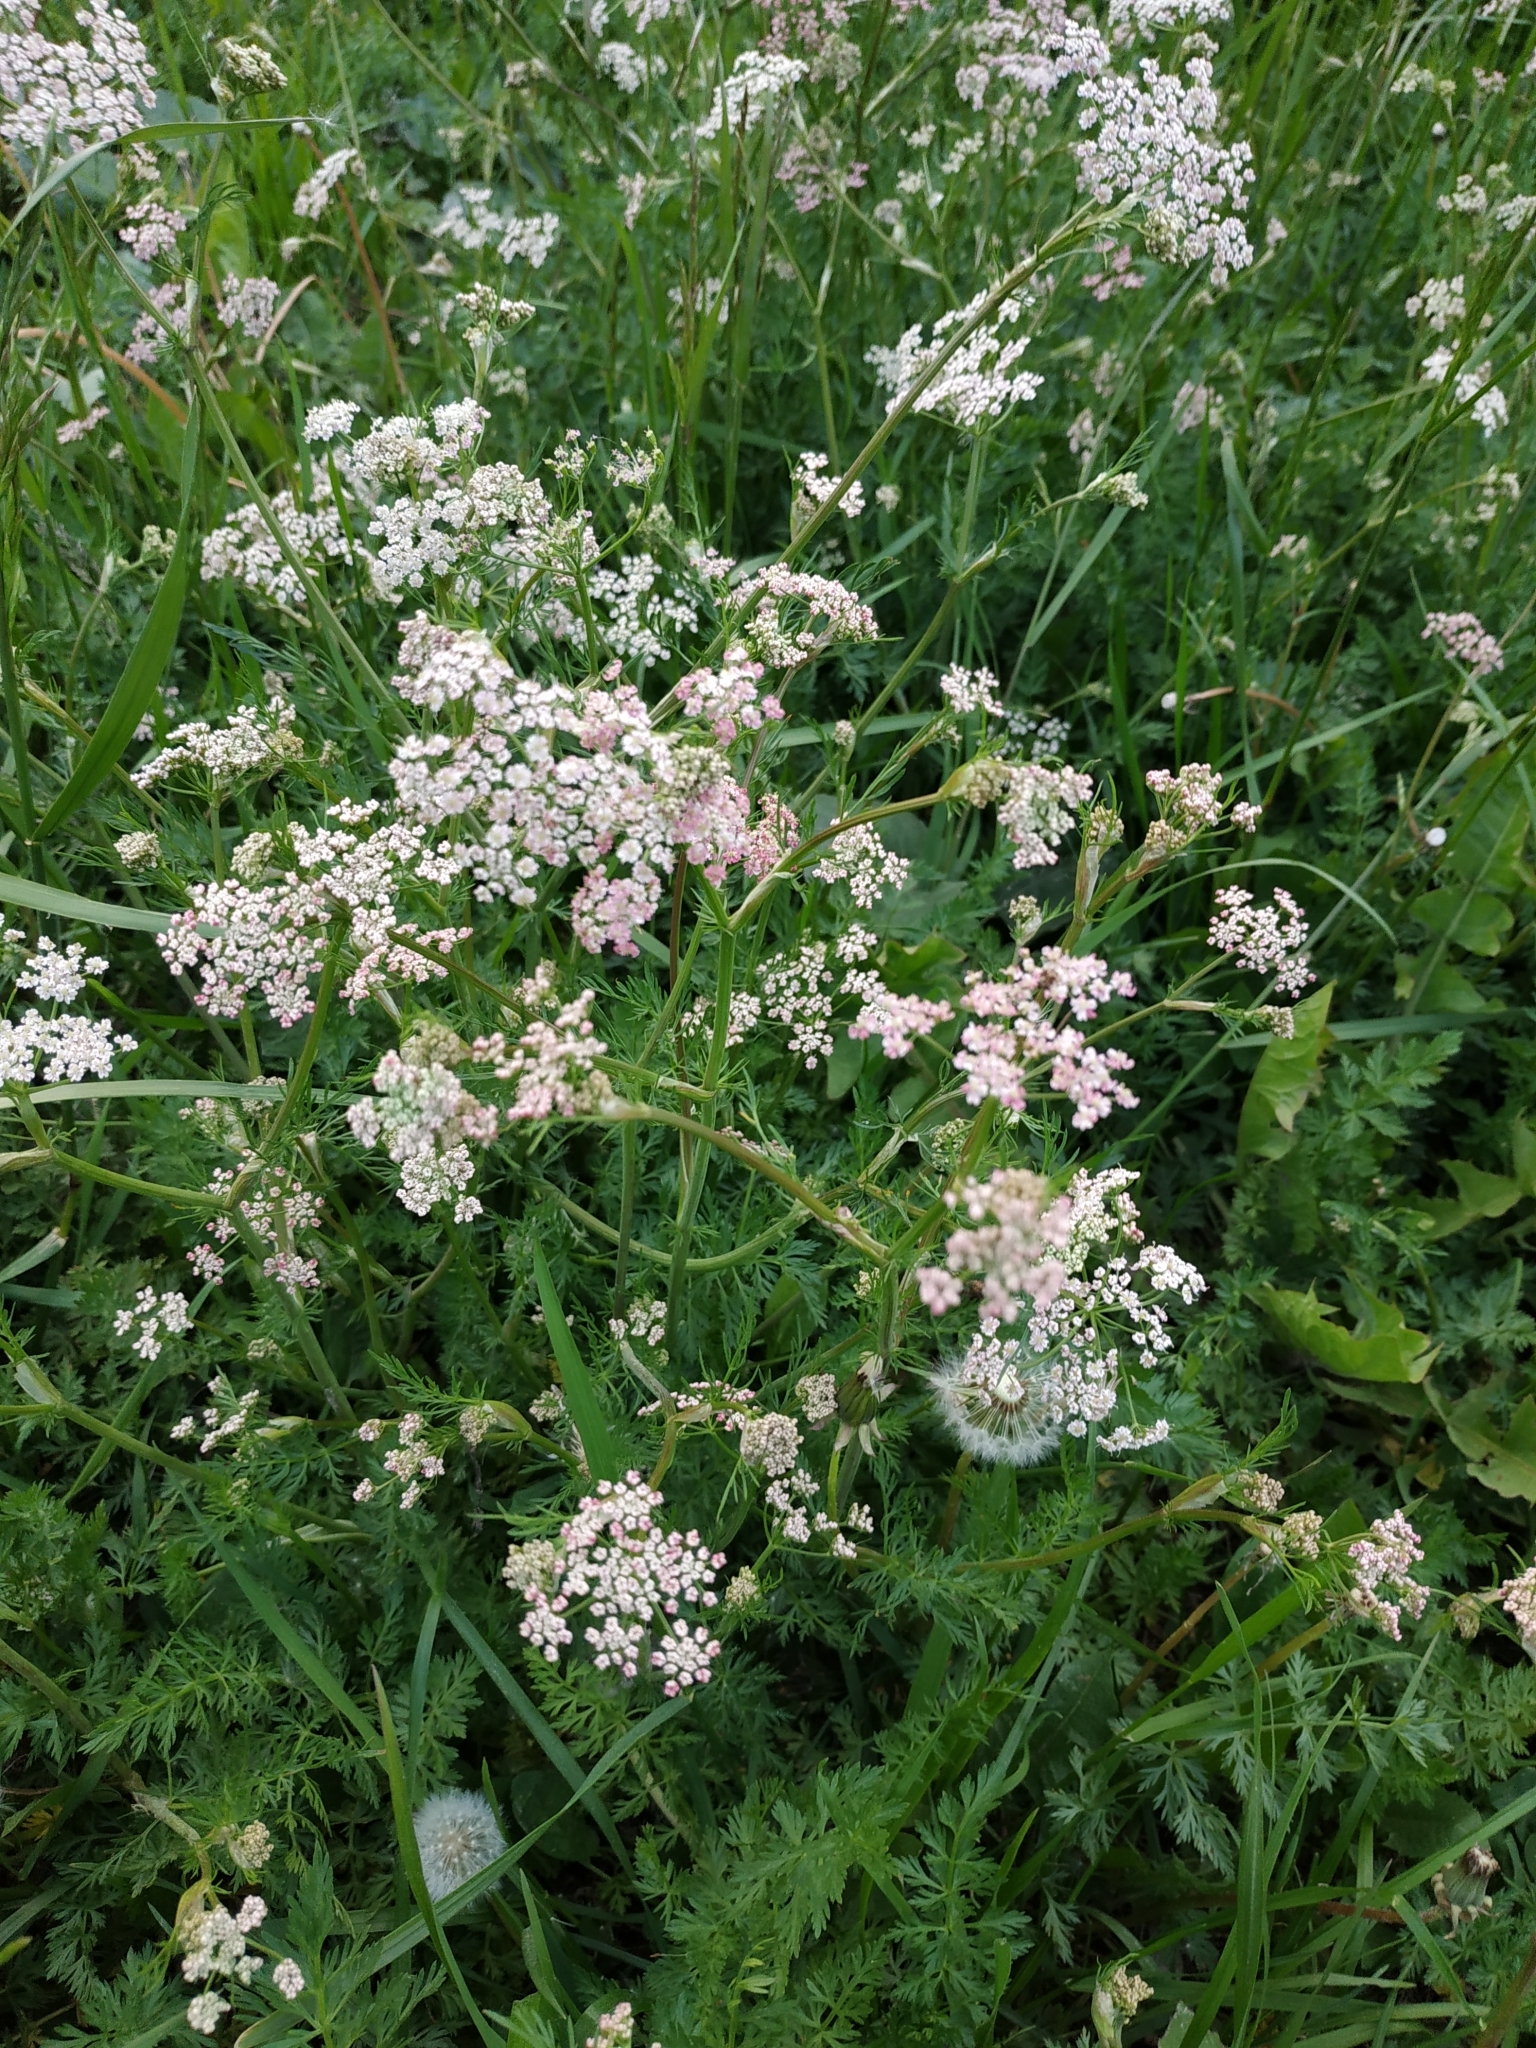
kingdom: Plantae
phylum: Tracheophyta
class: Magnoliopsida
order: Apiales
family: Apiaceae
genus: Carum
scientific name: Carum carvi
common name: Caraway
